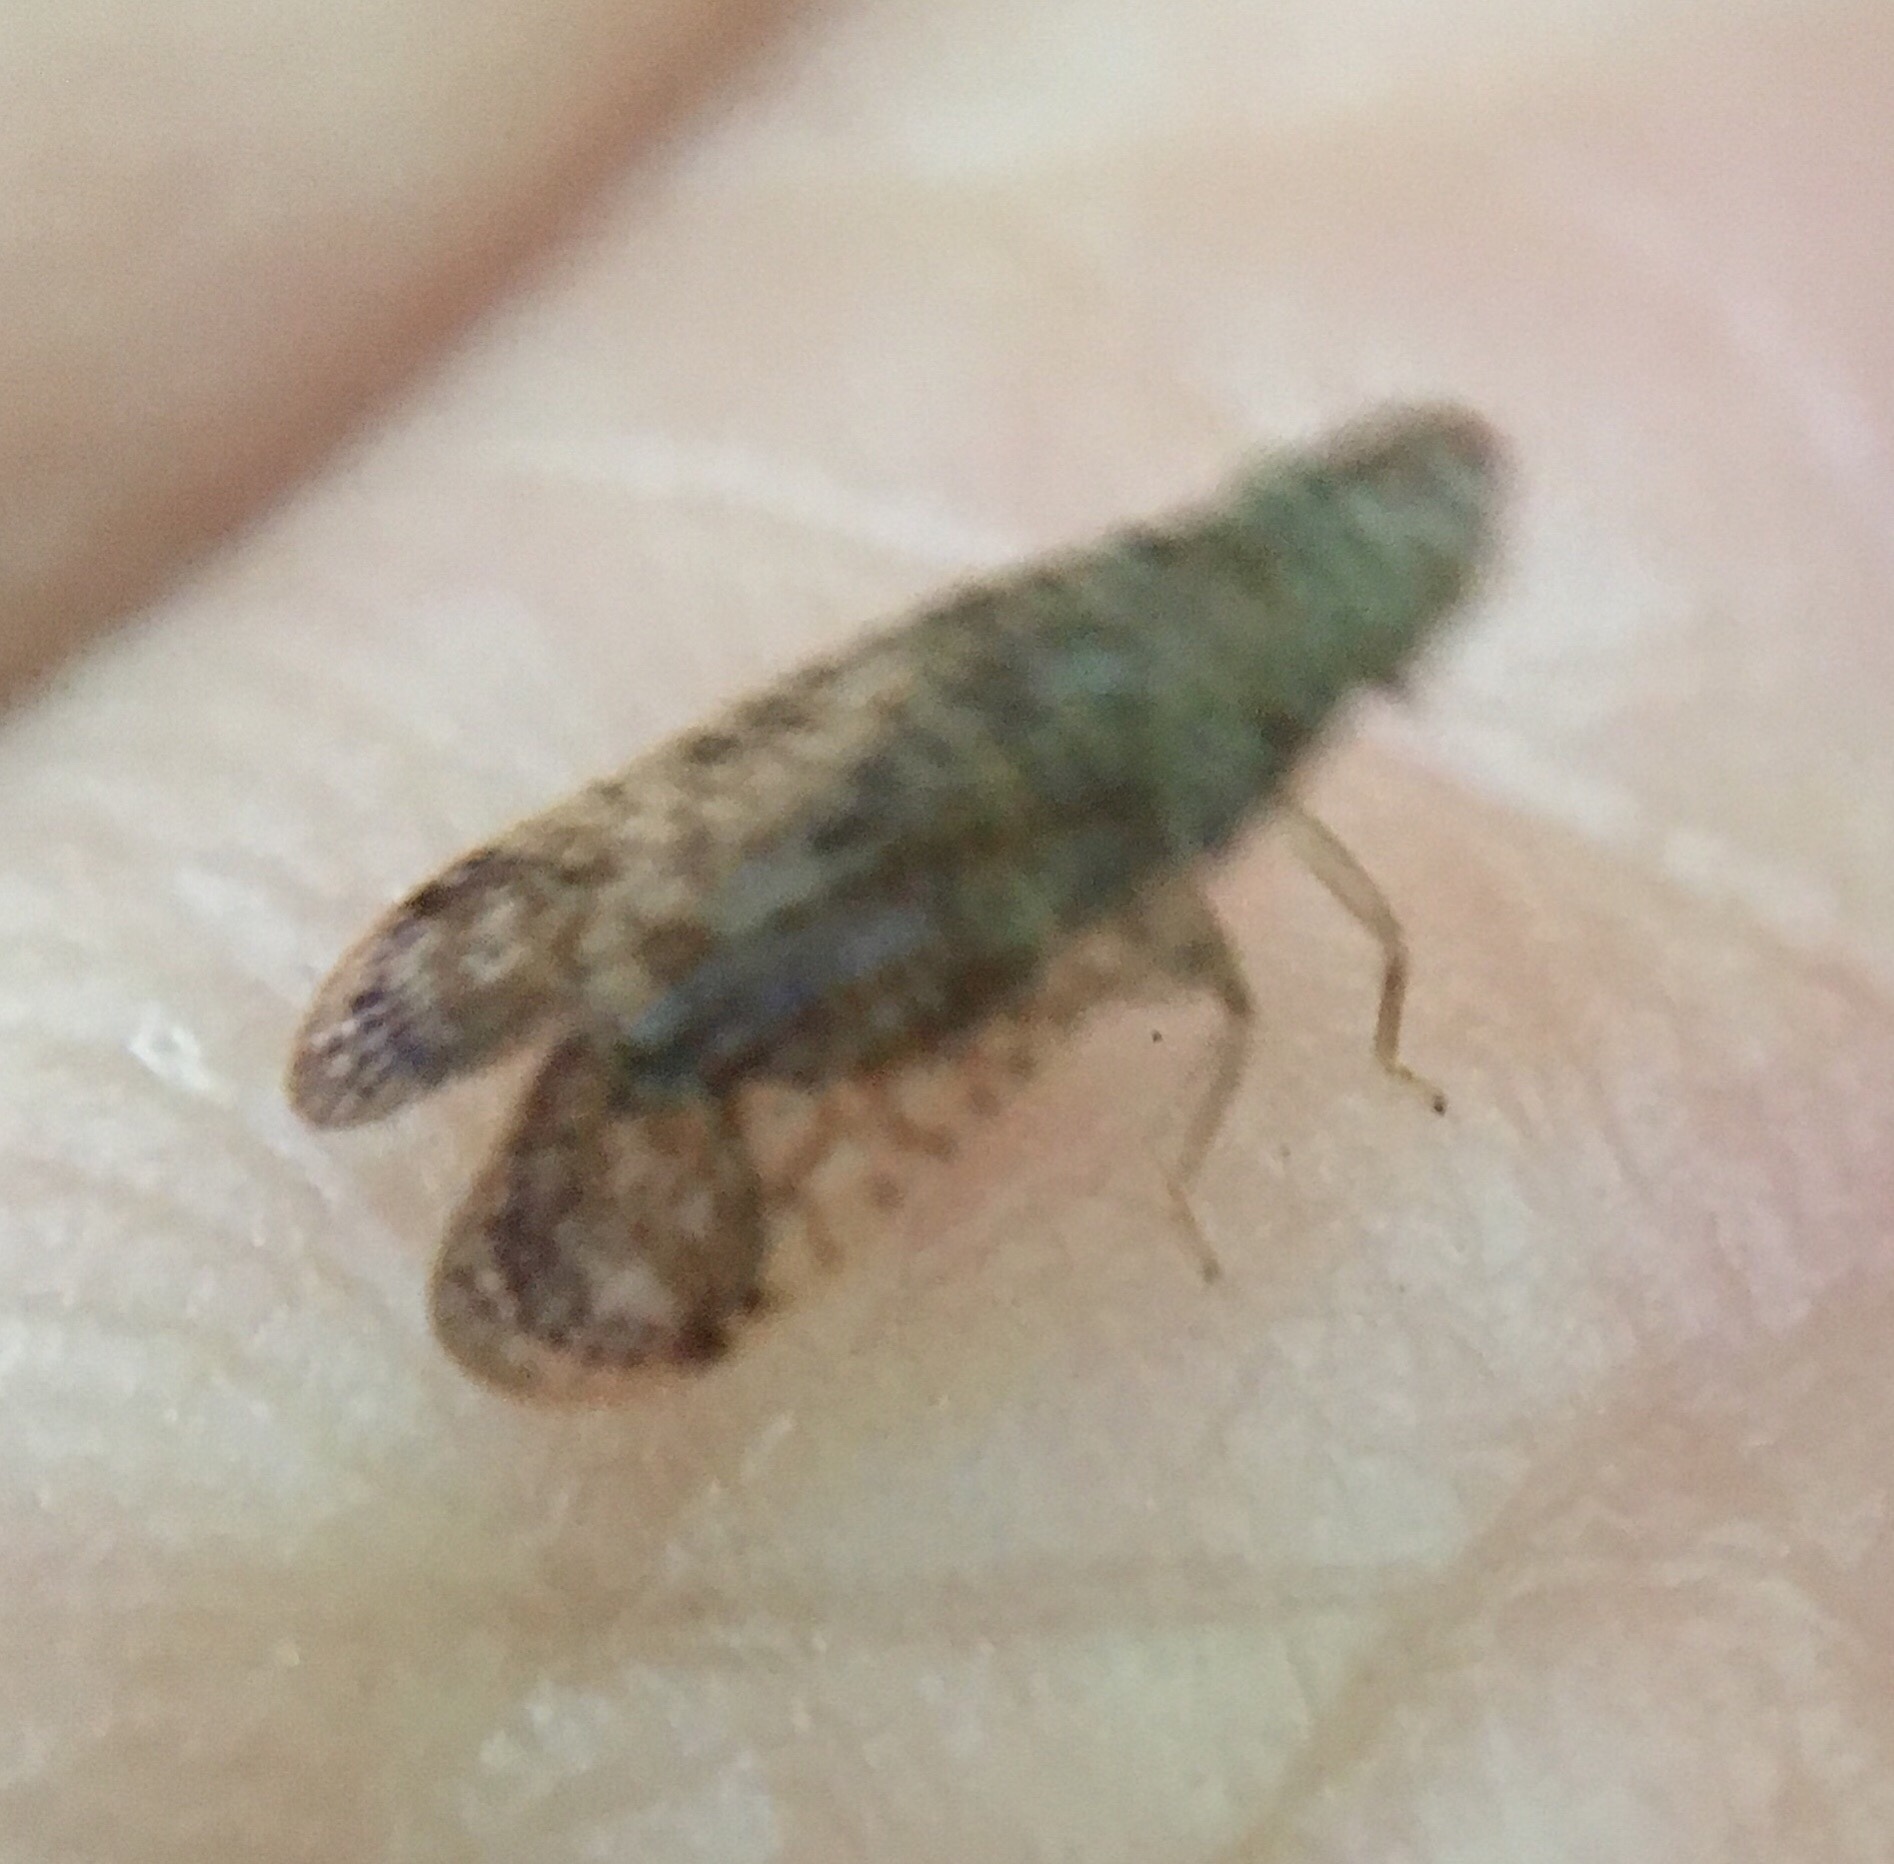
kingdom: Animalia
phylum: Arthropoda
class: Insecta
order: Hemiptera
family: Tropiduchidae
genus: Pelitropis
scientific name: Pelitropis rotulata
